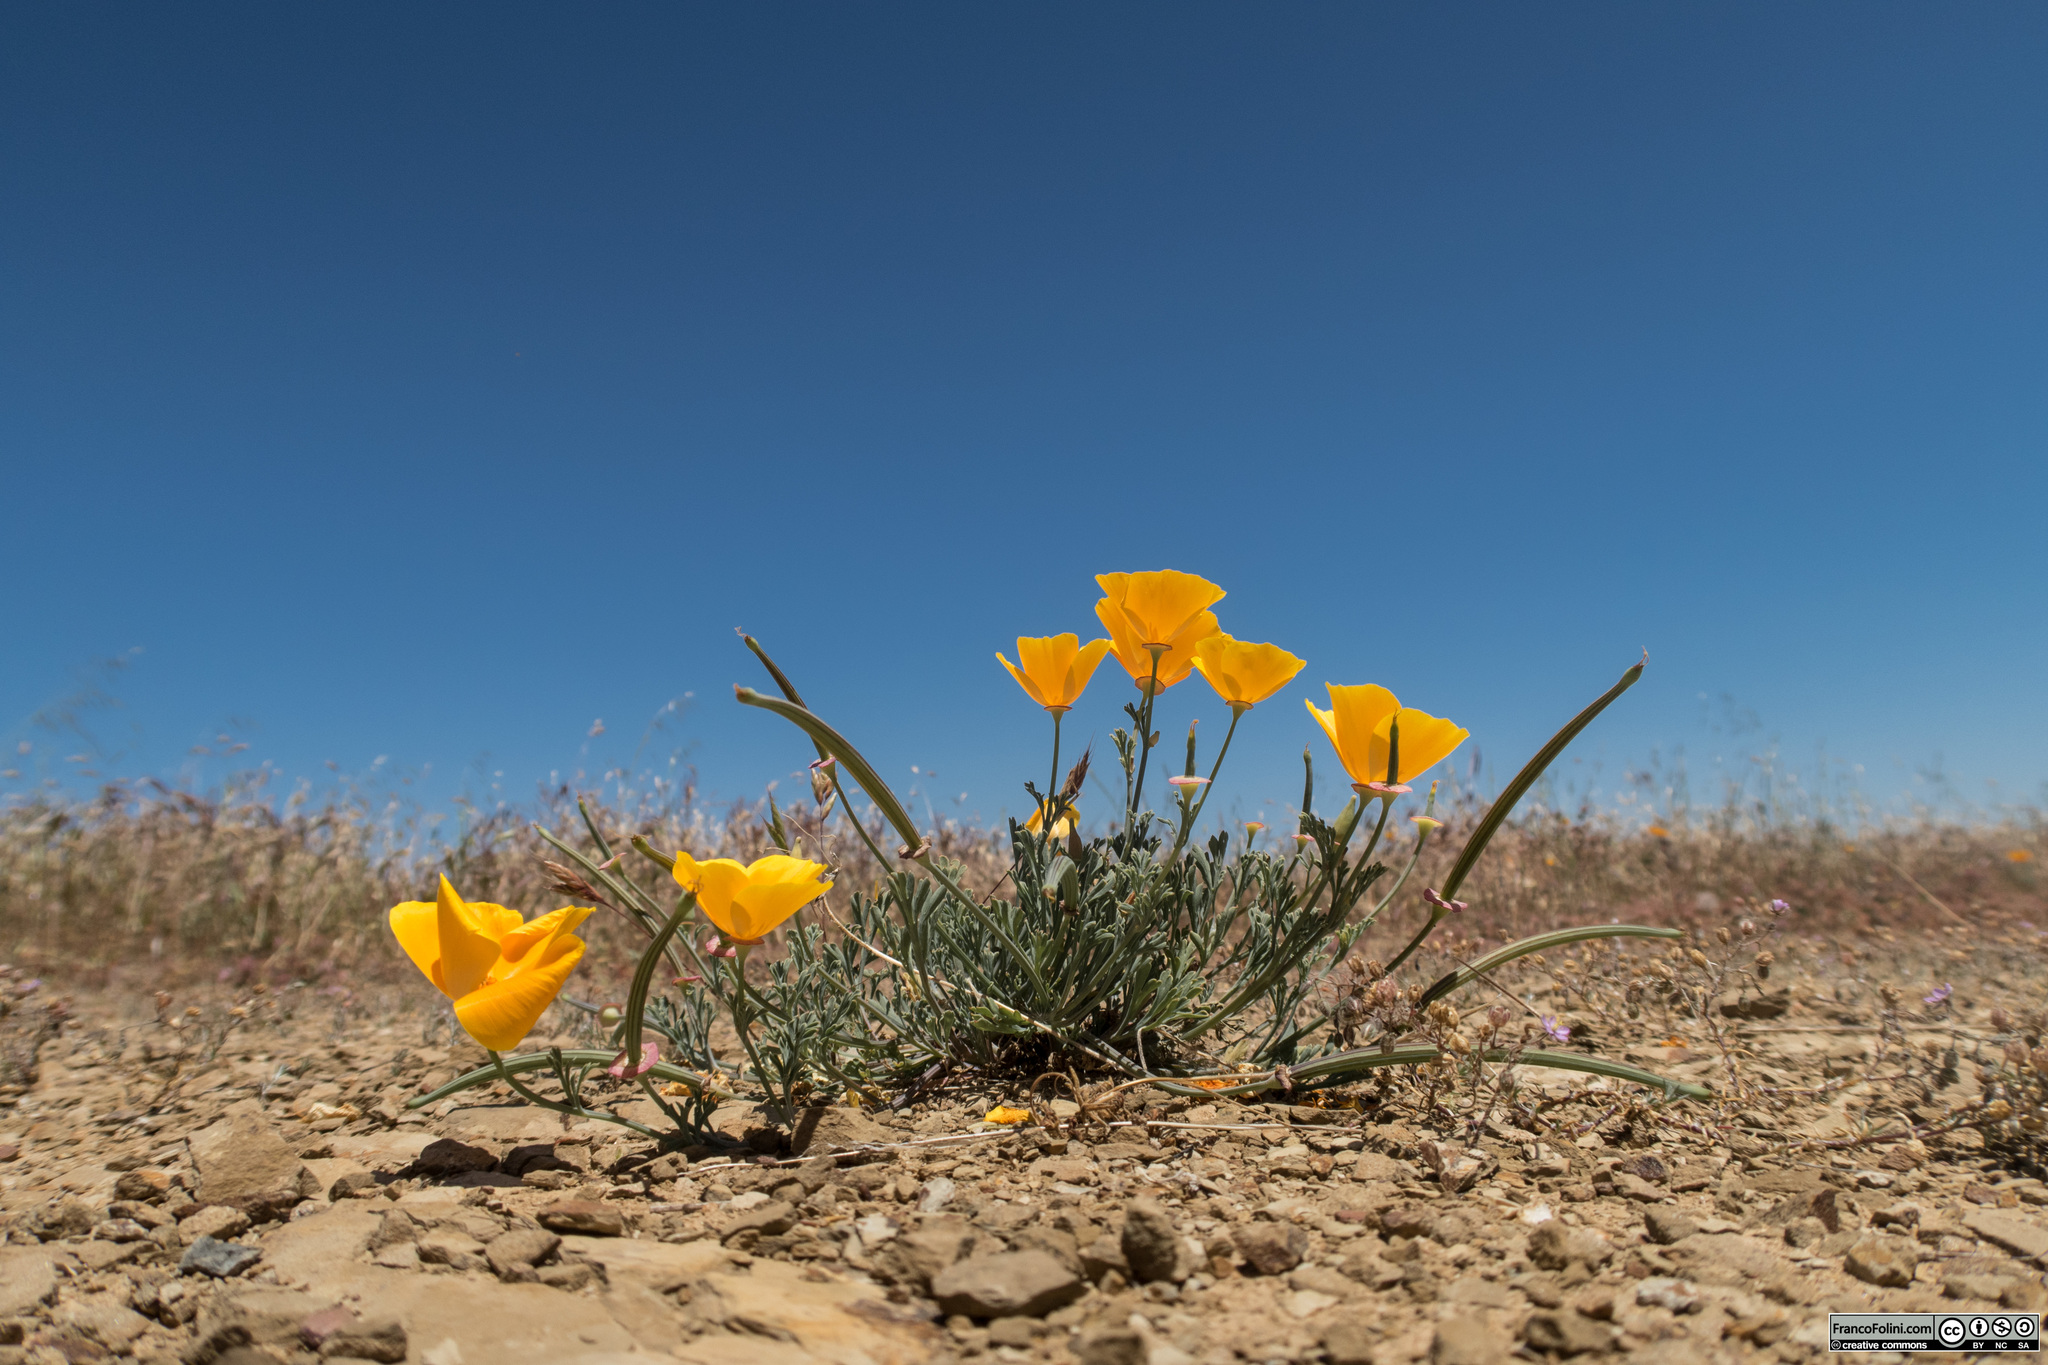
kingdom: Plantae
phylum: Tracheophyta
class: Magnoliopsida
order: Ranunculales
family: Papaveraceae
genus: Eschscholzia
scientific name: Eschscholzia californica
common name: California poppy
